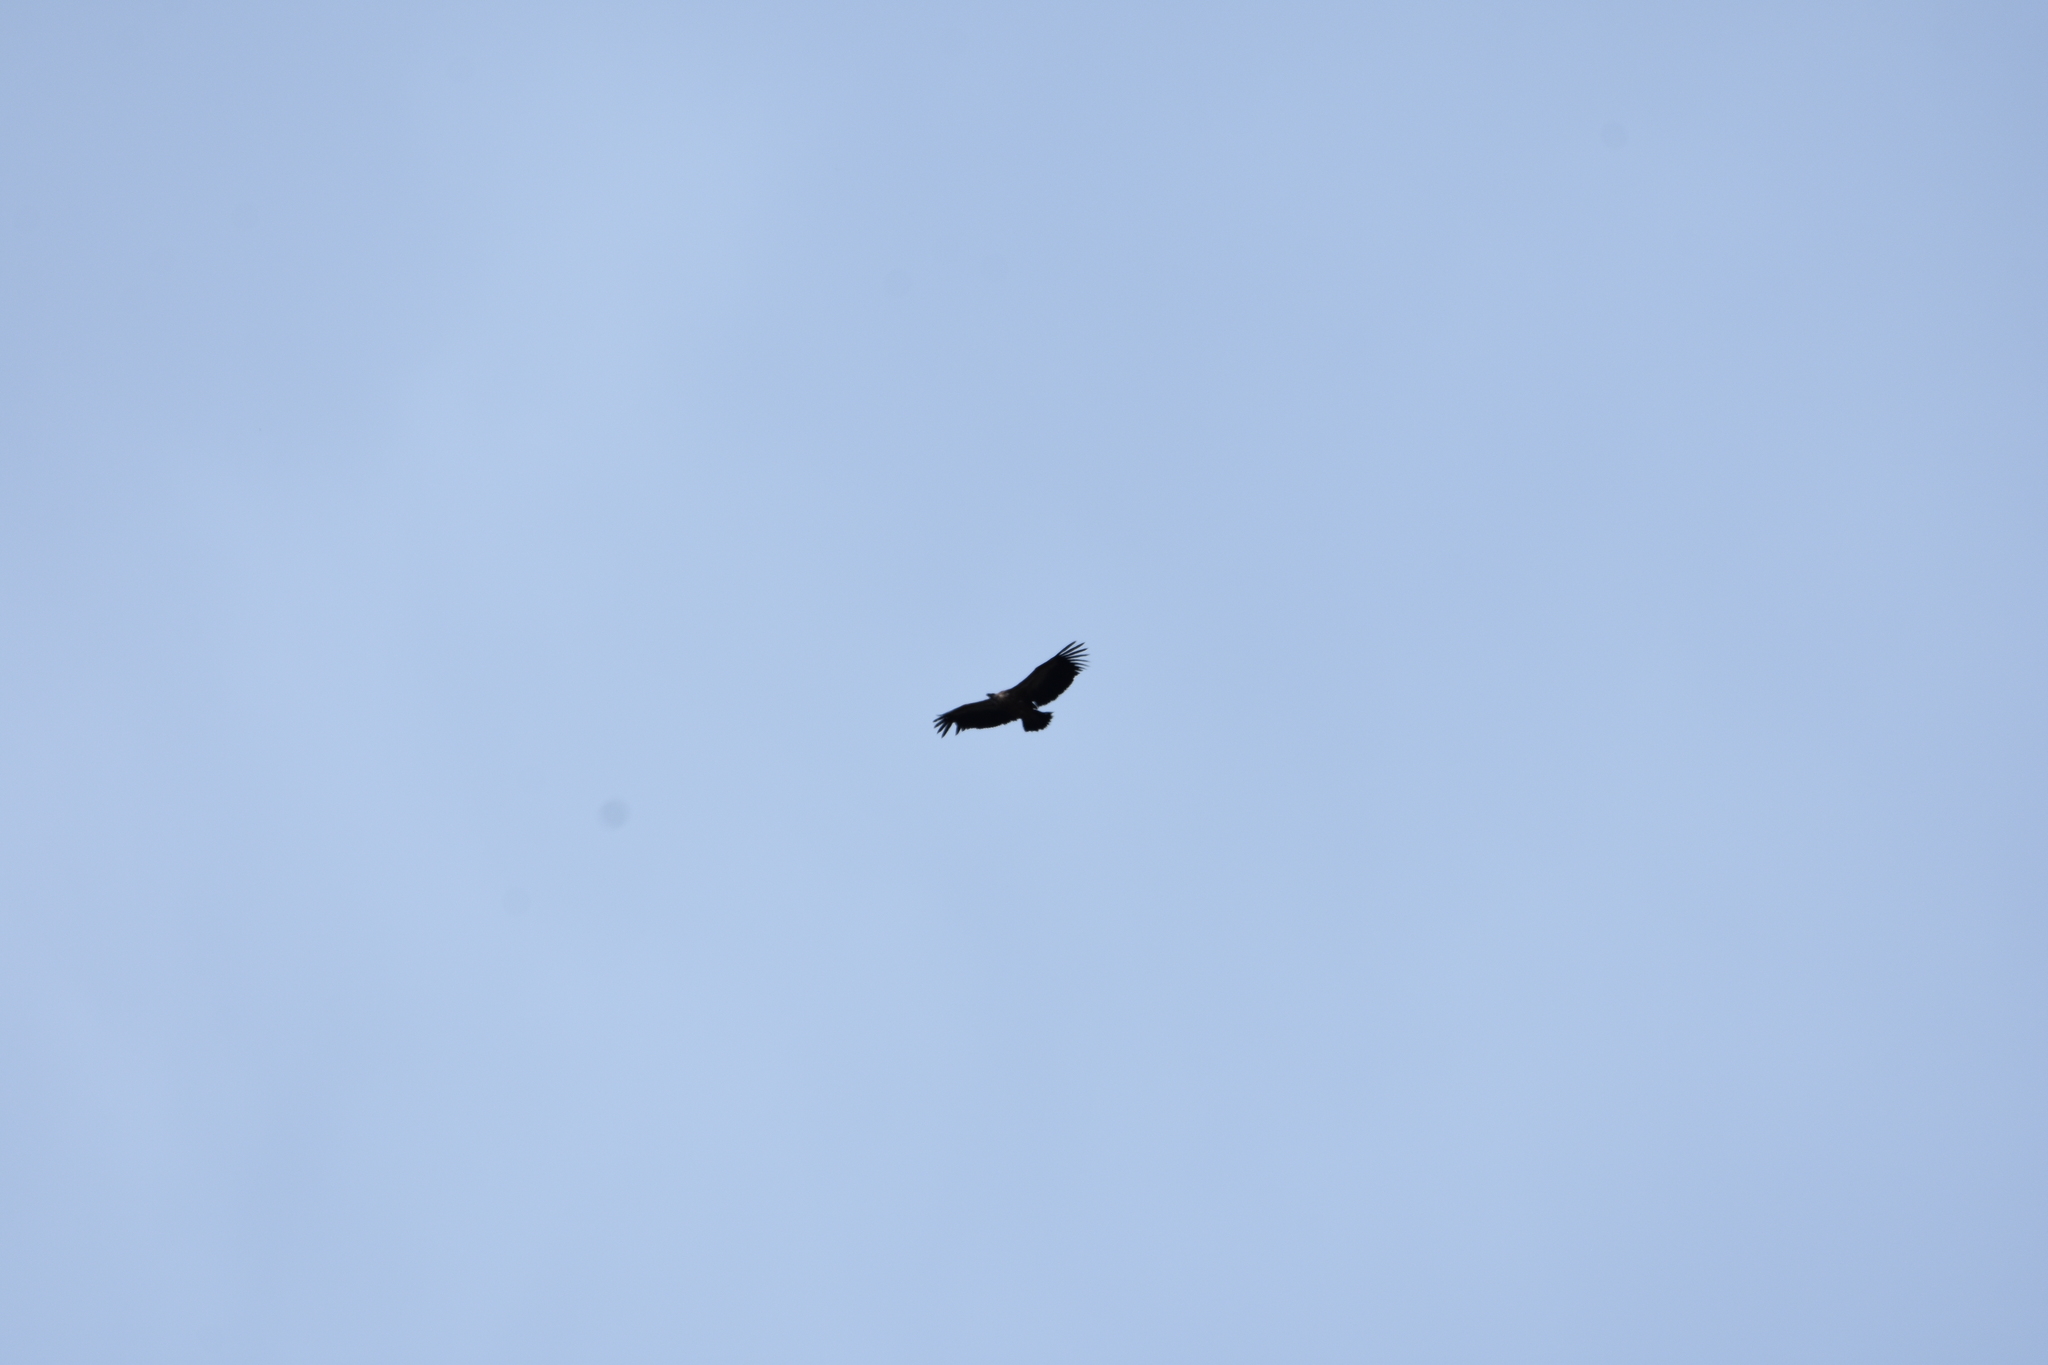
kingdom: Animalia
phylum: Chordata
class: Aves
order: Accipitriformes
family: Accipitridae
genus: Gyps
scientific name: Gyps fulvus
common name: Griffon vulture
